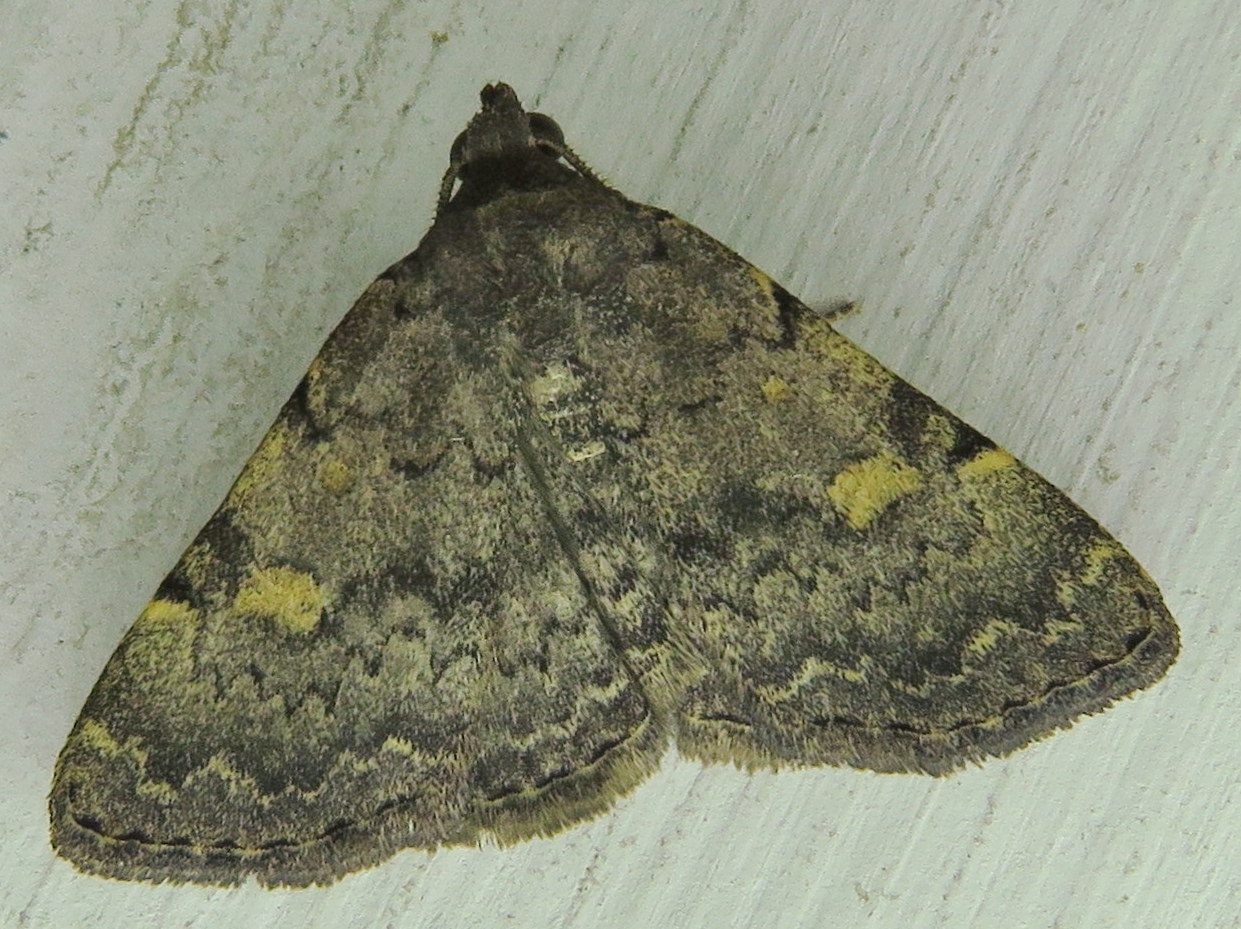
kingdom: Animalia
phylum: Arthropoda
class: Insecta
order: Lepidoptera
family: Erebidae
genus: Idia
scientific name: Idia aemula
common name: Common idia moth
